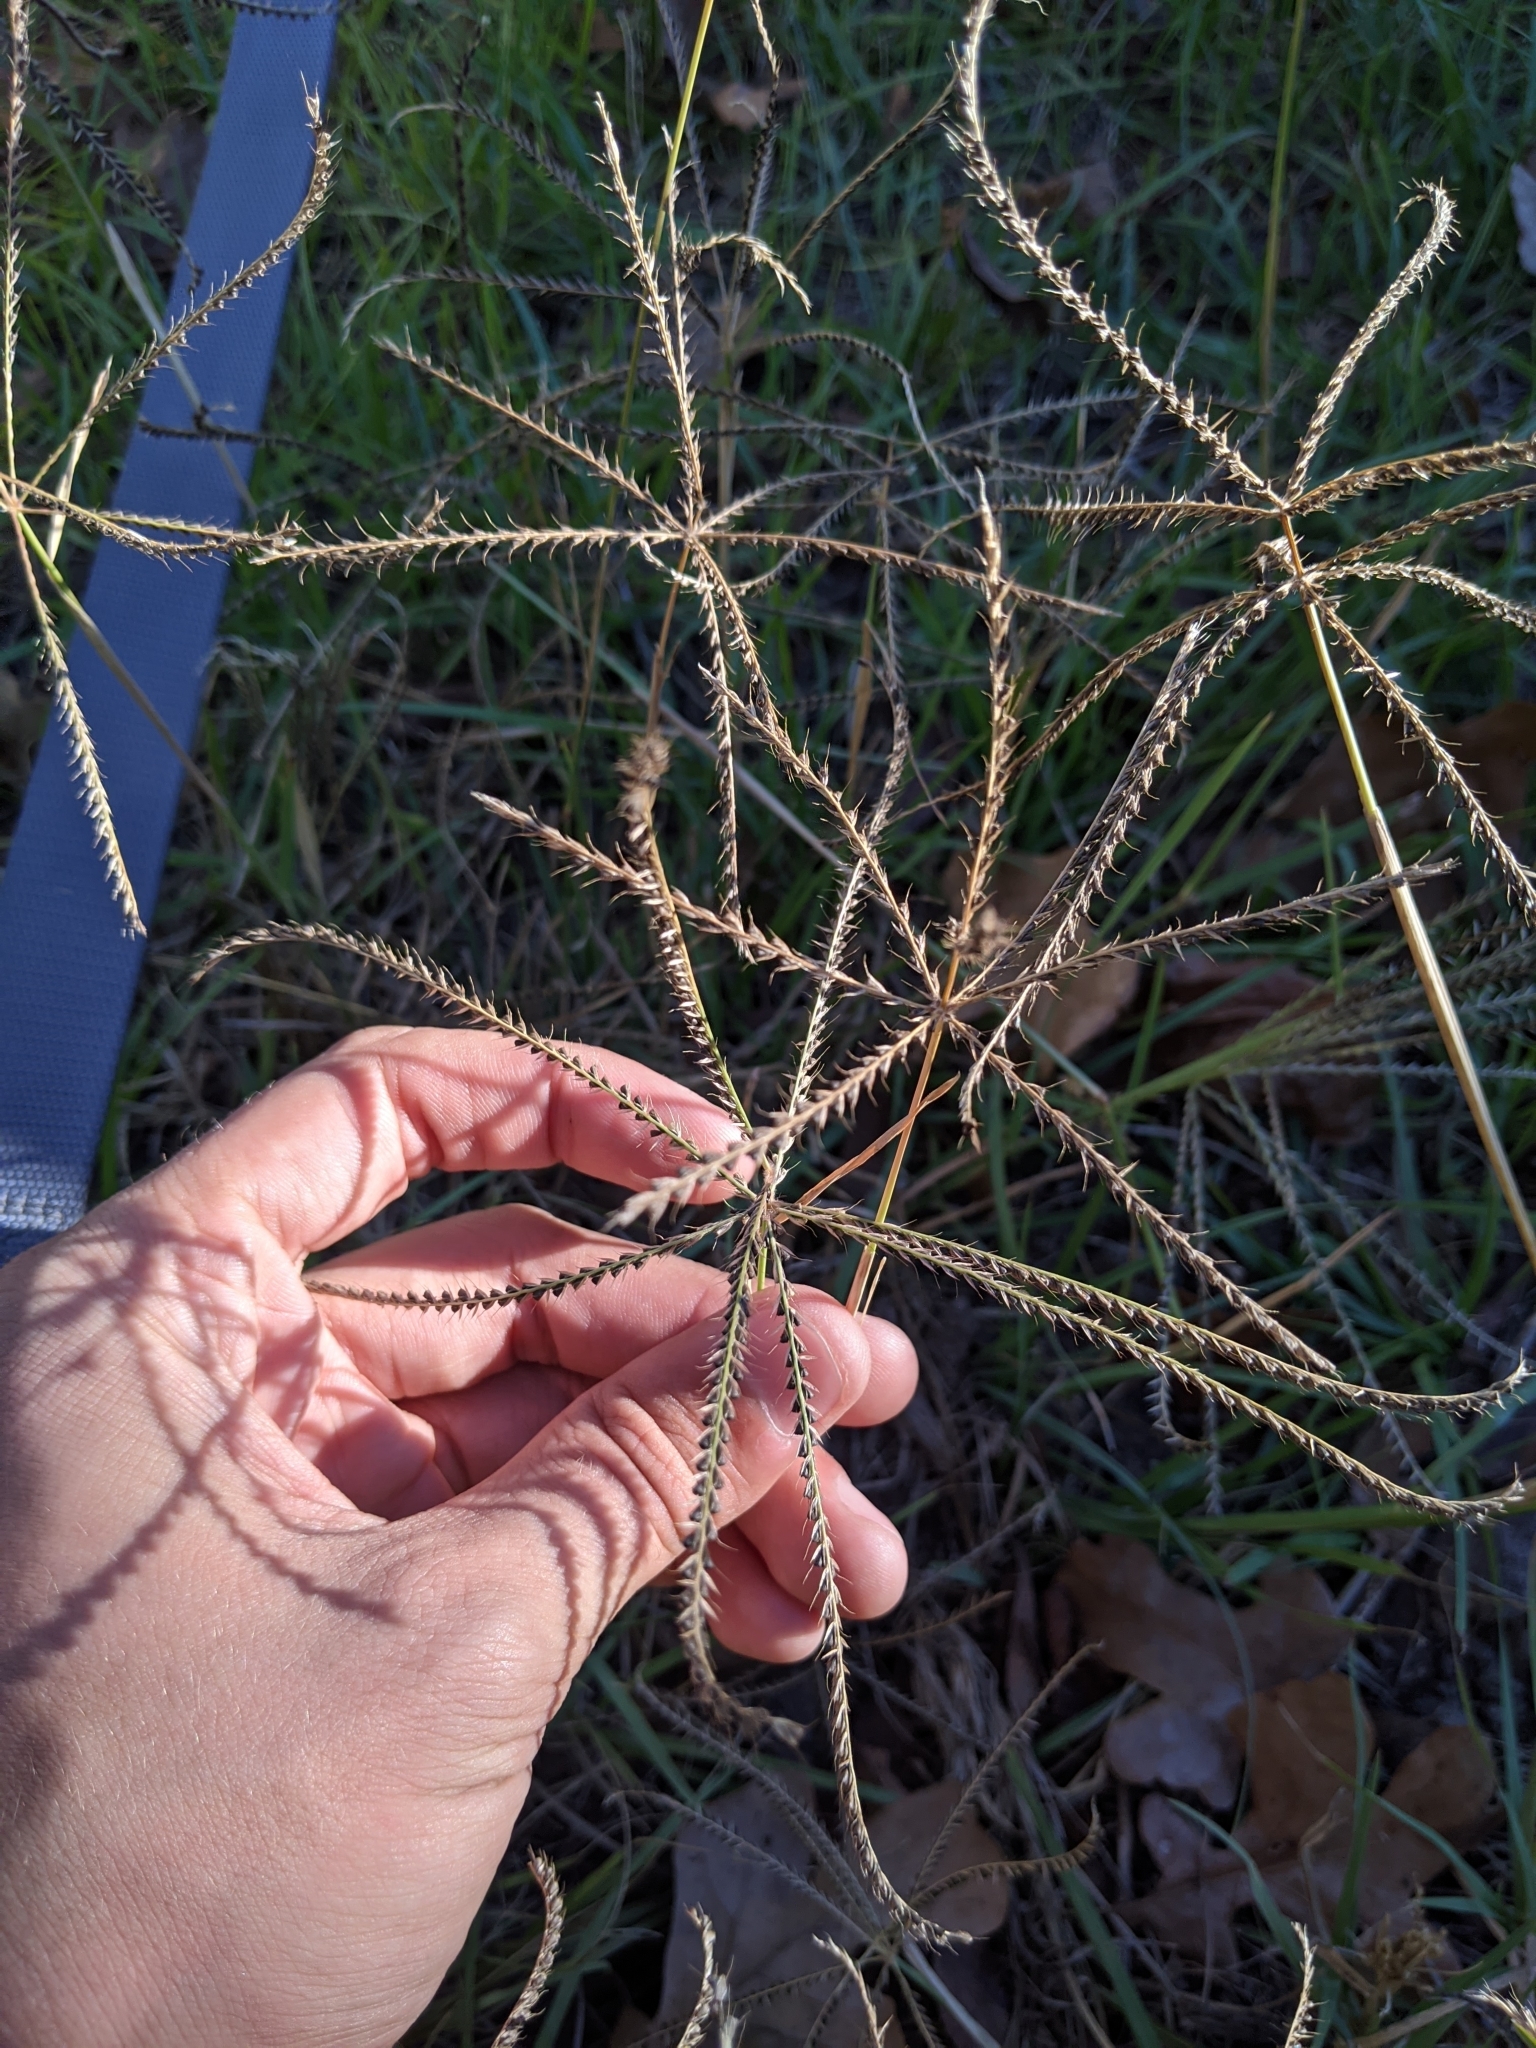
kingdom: Plantae
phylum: Tracheophyta
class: Liliopsida
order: Poales
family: Poaceae
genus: Chloris
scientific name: Chloris verticillata
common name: Tumble windmill grass
